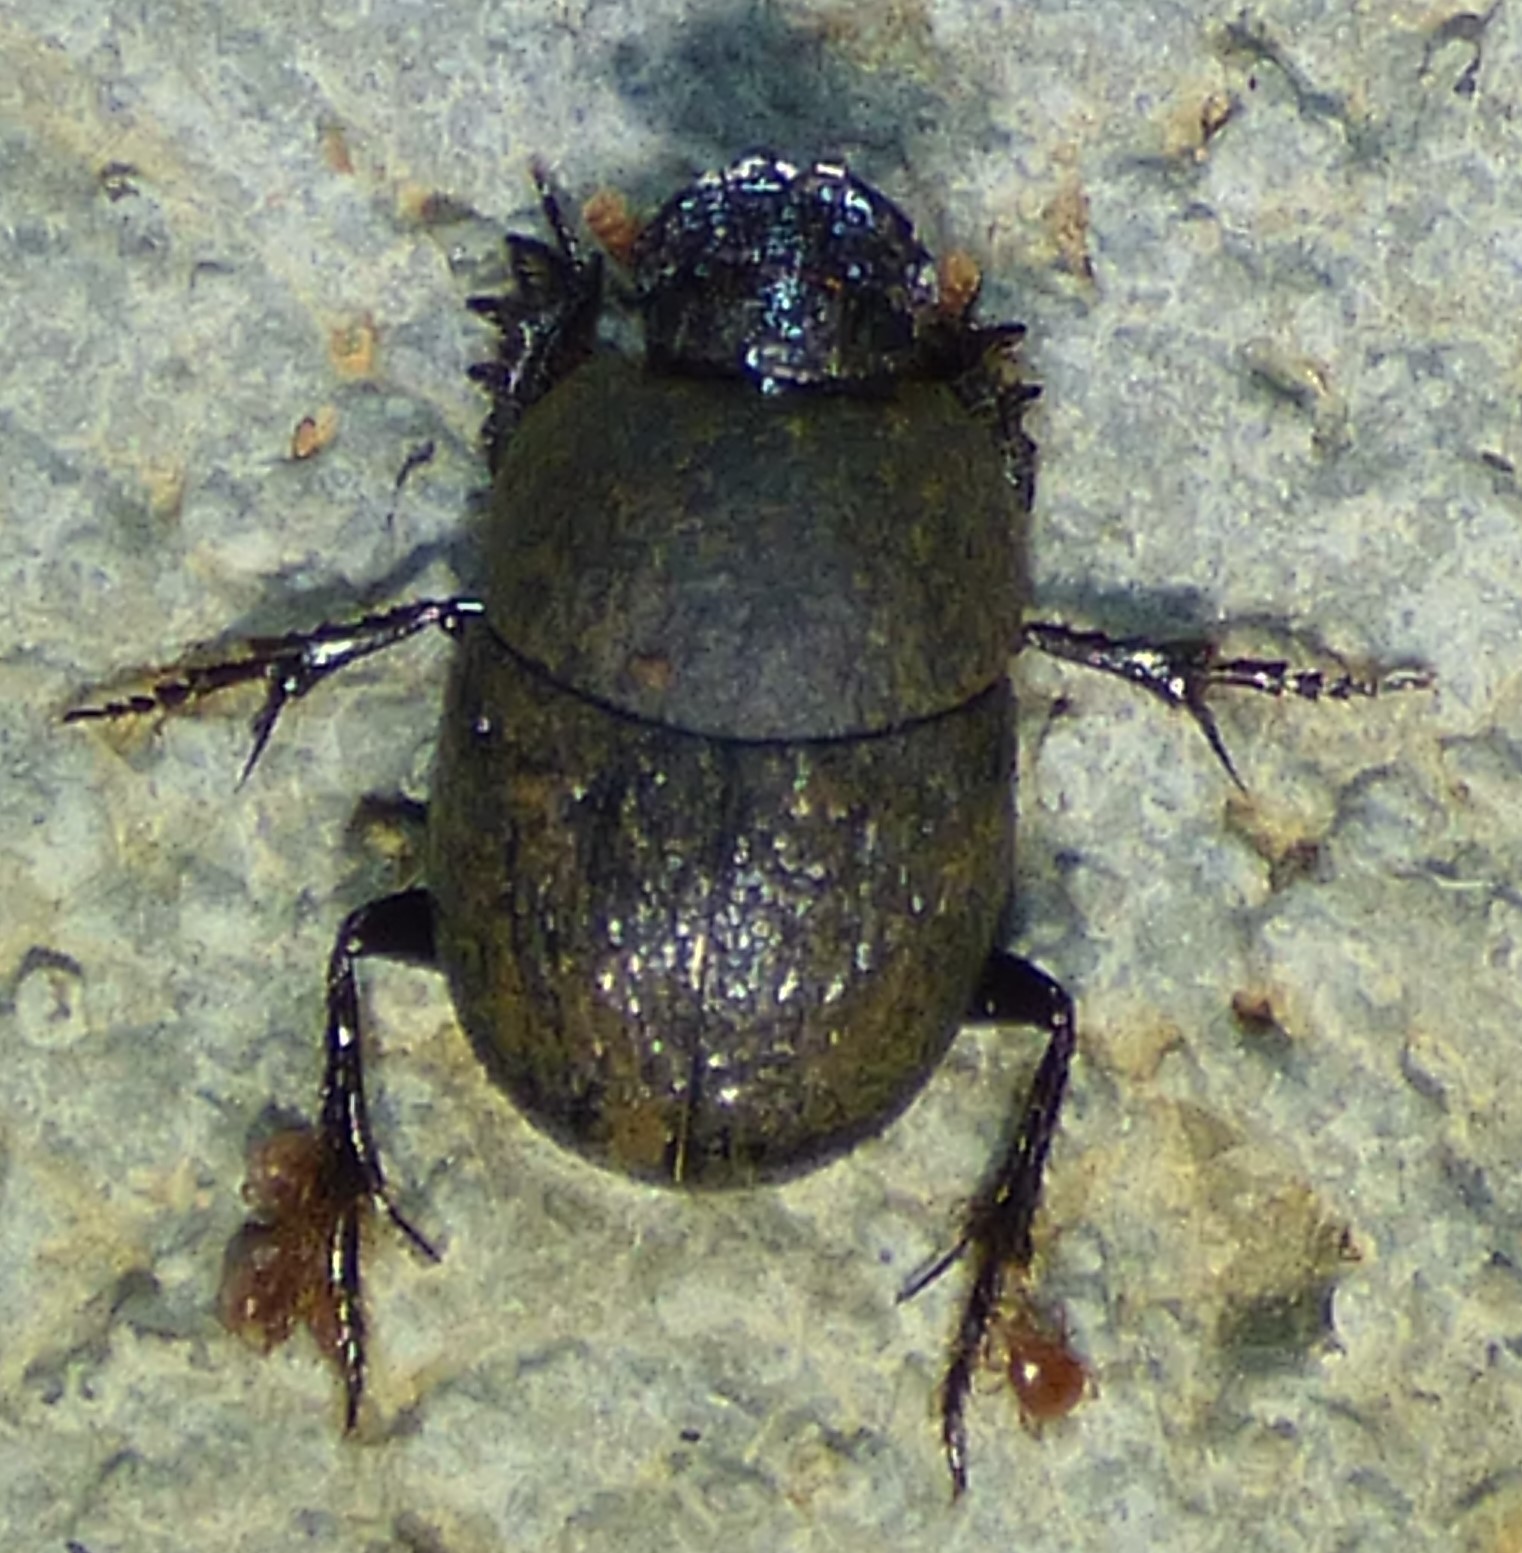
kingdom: Animalia
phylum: Arthropoda
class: Insecta
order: Coleoptera
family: Scarabaeidae
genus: Hamonthophagus
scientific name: Hamonthophagus depressus
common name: Scarab beetle
